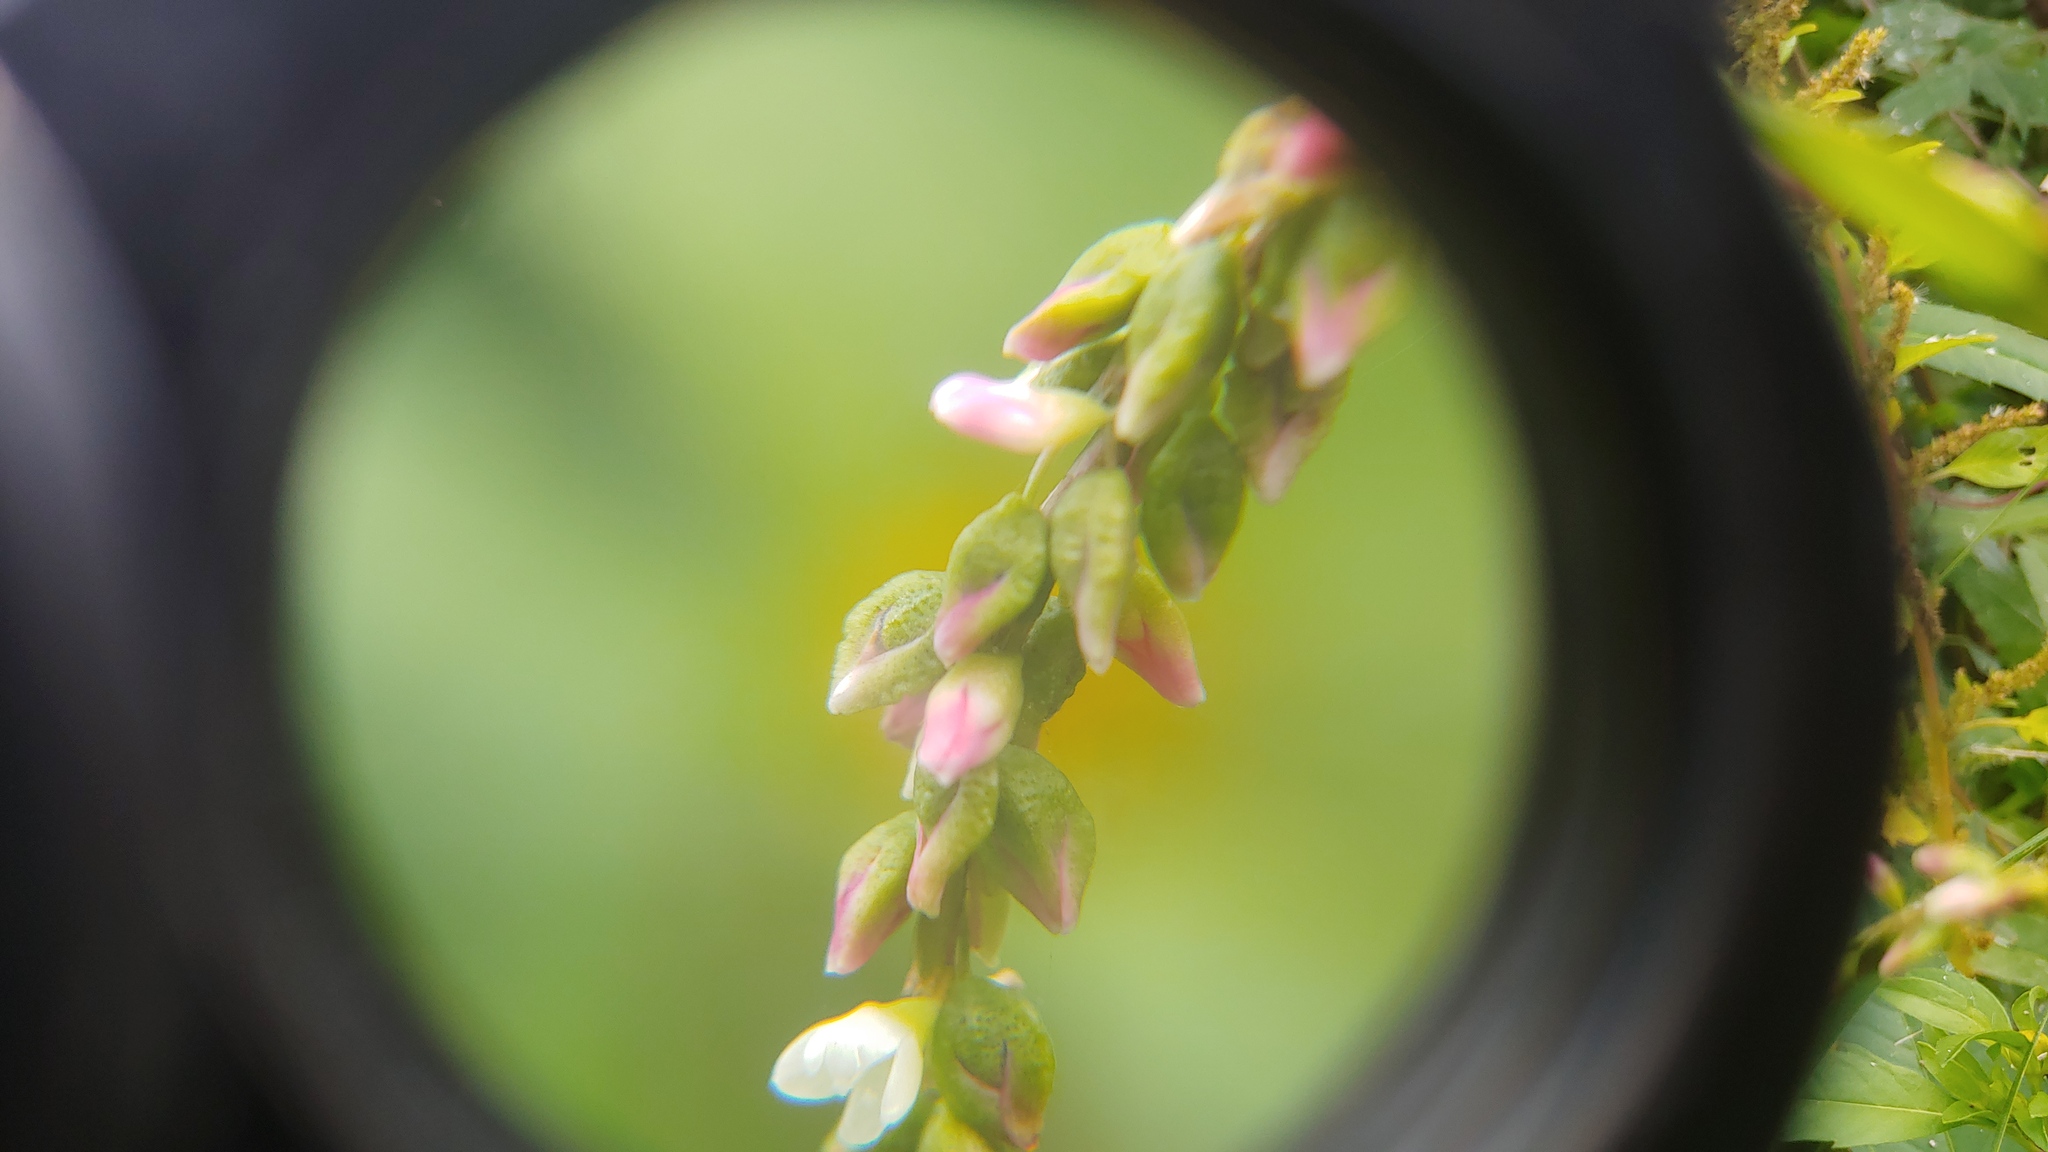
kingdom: Plantae
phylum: Tracheophyta
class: Magnoliopsida
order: Caryophyllales
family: Polygonaceae
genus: Persicaria
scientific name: Persicaria hydropiper
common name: Water-pepper
